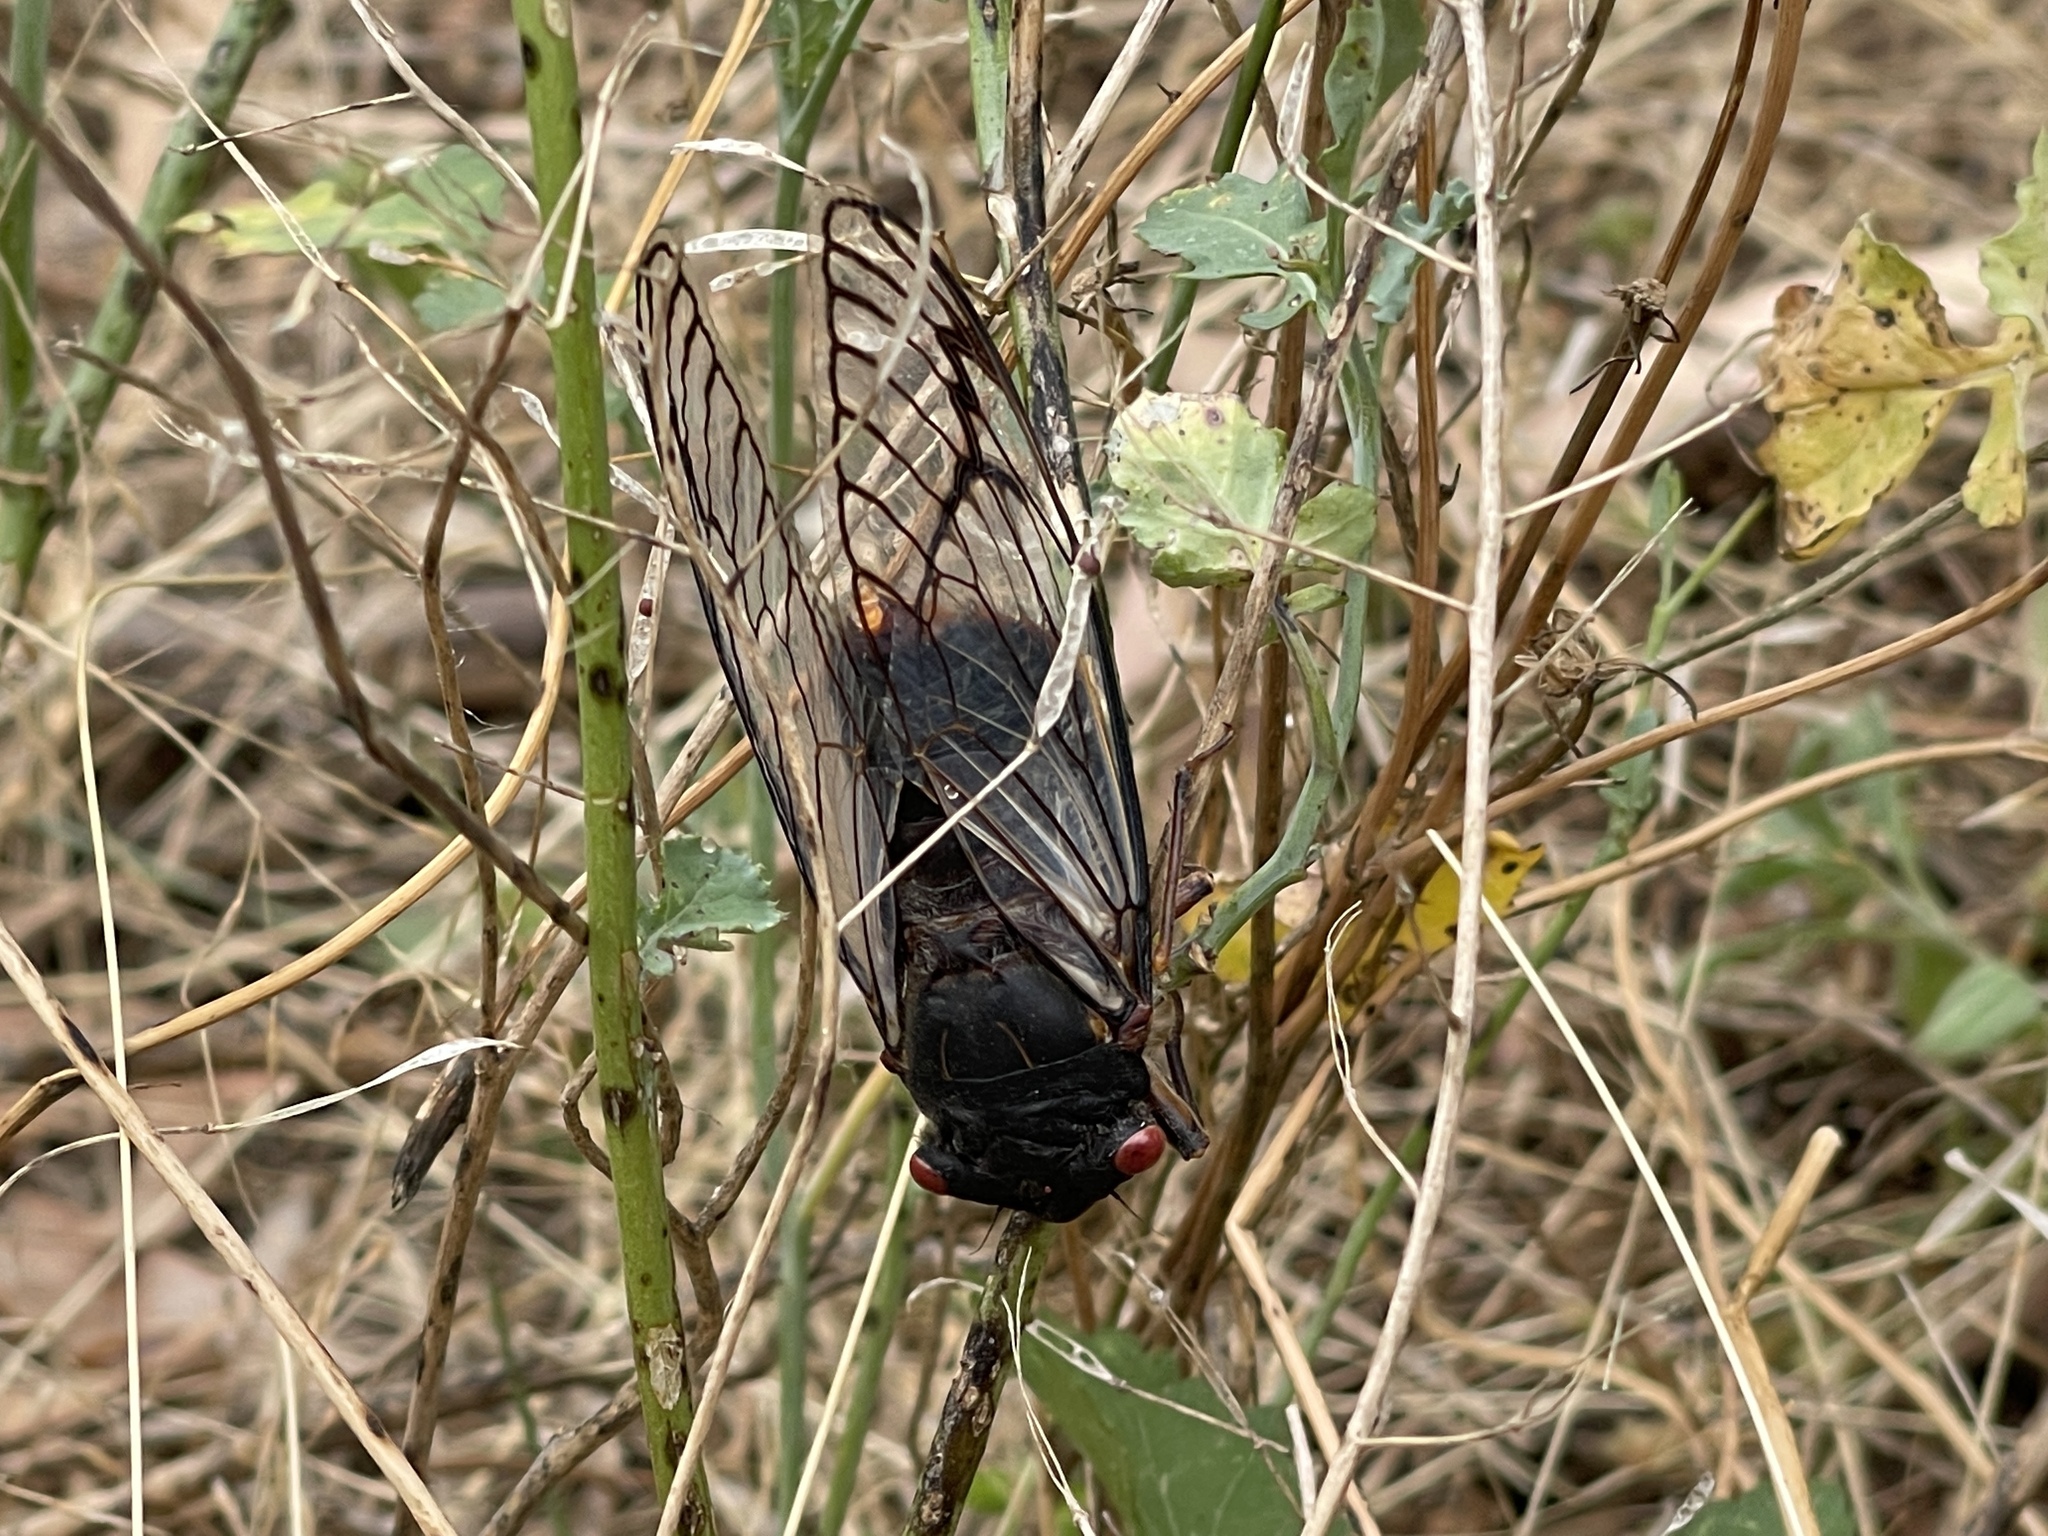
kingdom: Animalia
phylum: Arthropoda
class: Insecta
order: Hemiptera
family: Cicadidae
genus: Psaltoda
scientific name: Psaltoda moerens
